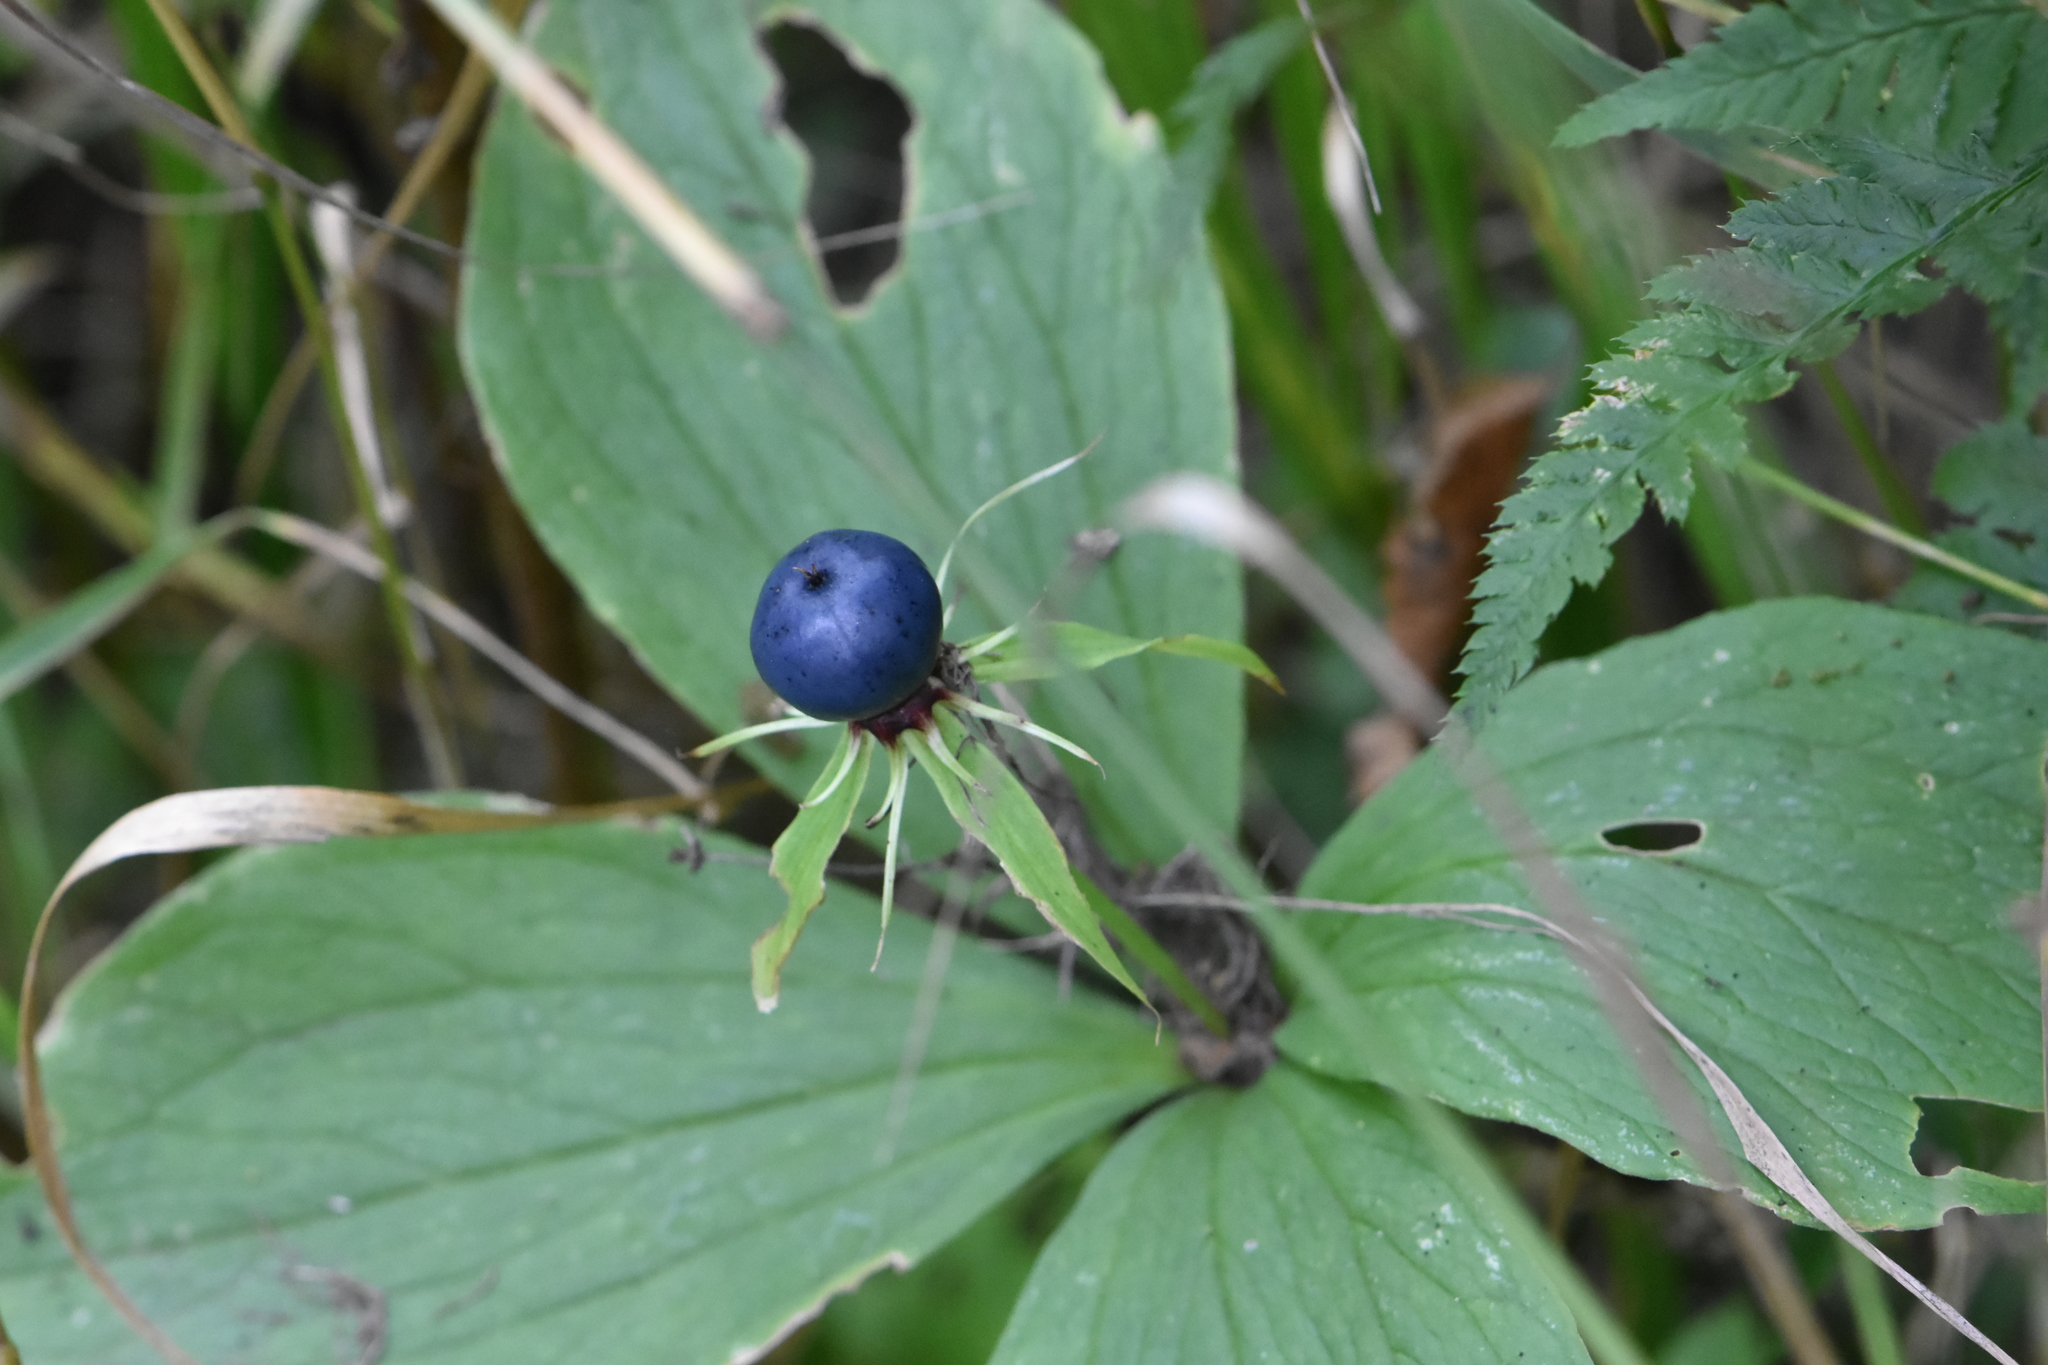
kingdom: Plantae
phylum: Tracheophyta
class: Liliopsida
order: Liliales
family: Melanthiaceae
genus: Paris
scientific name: Paris quadrifolia
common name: Herb-paris
